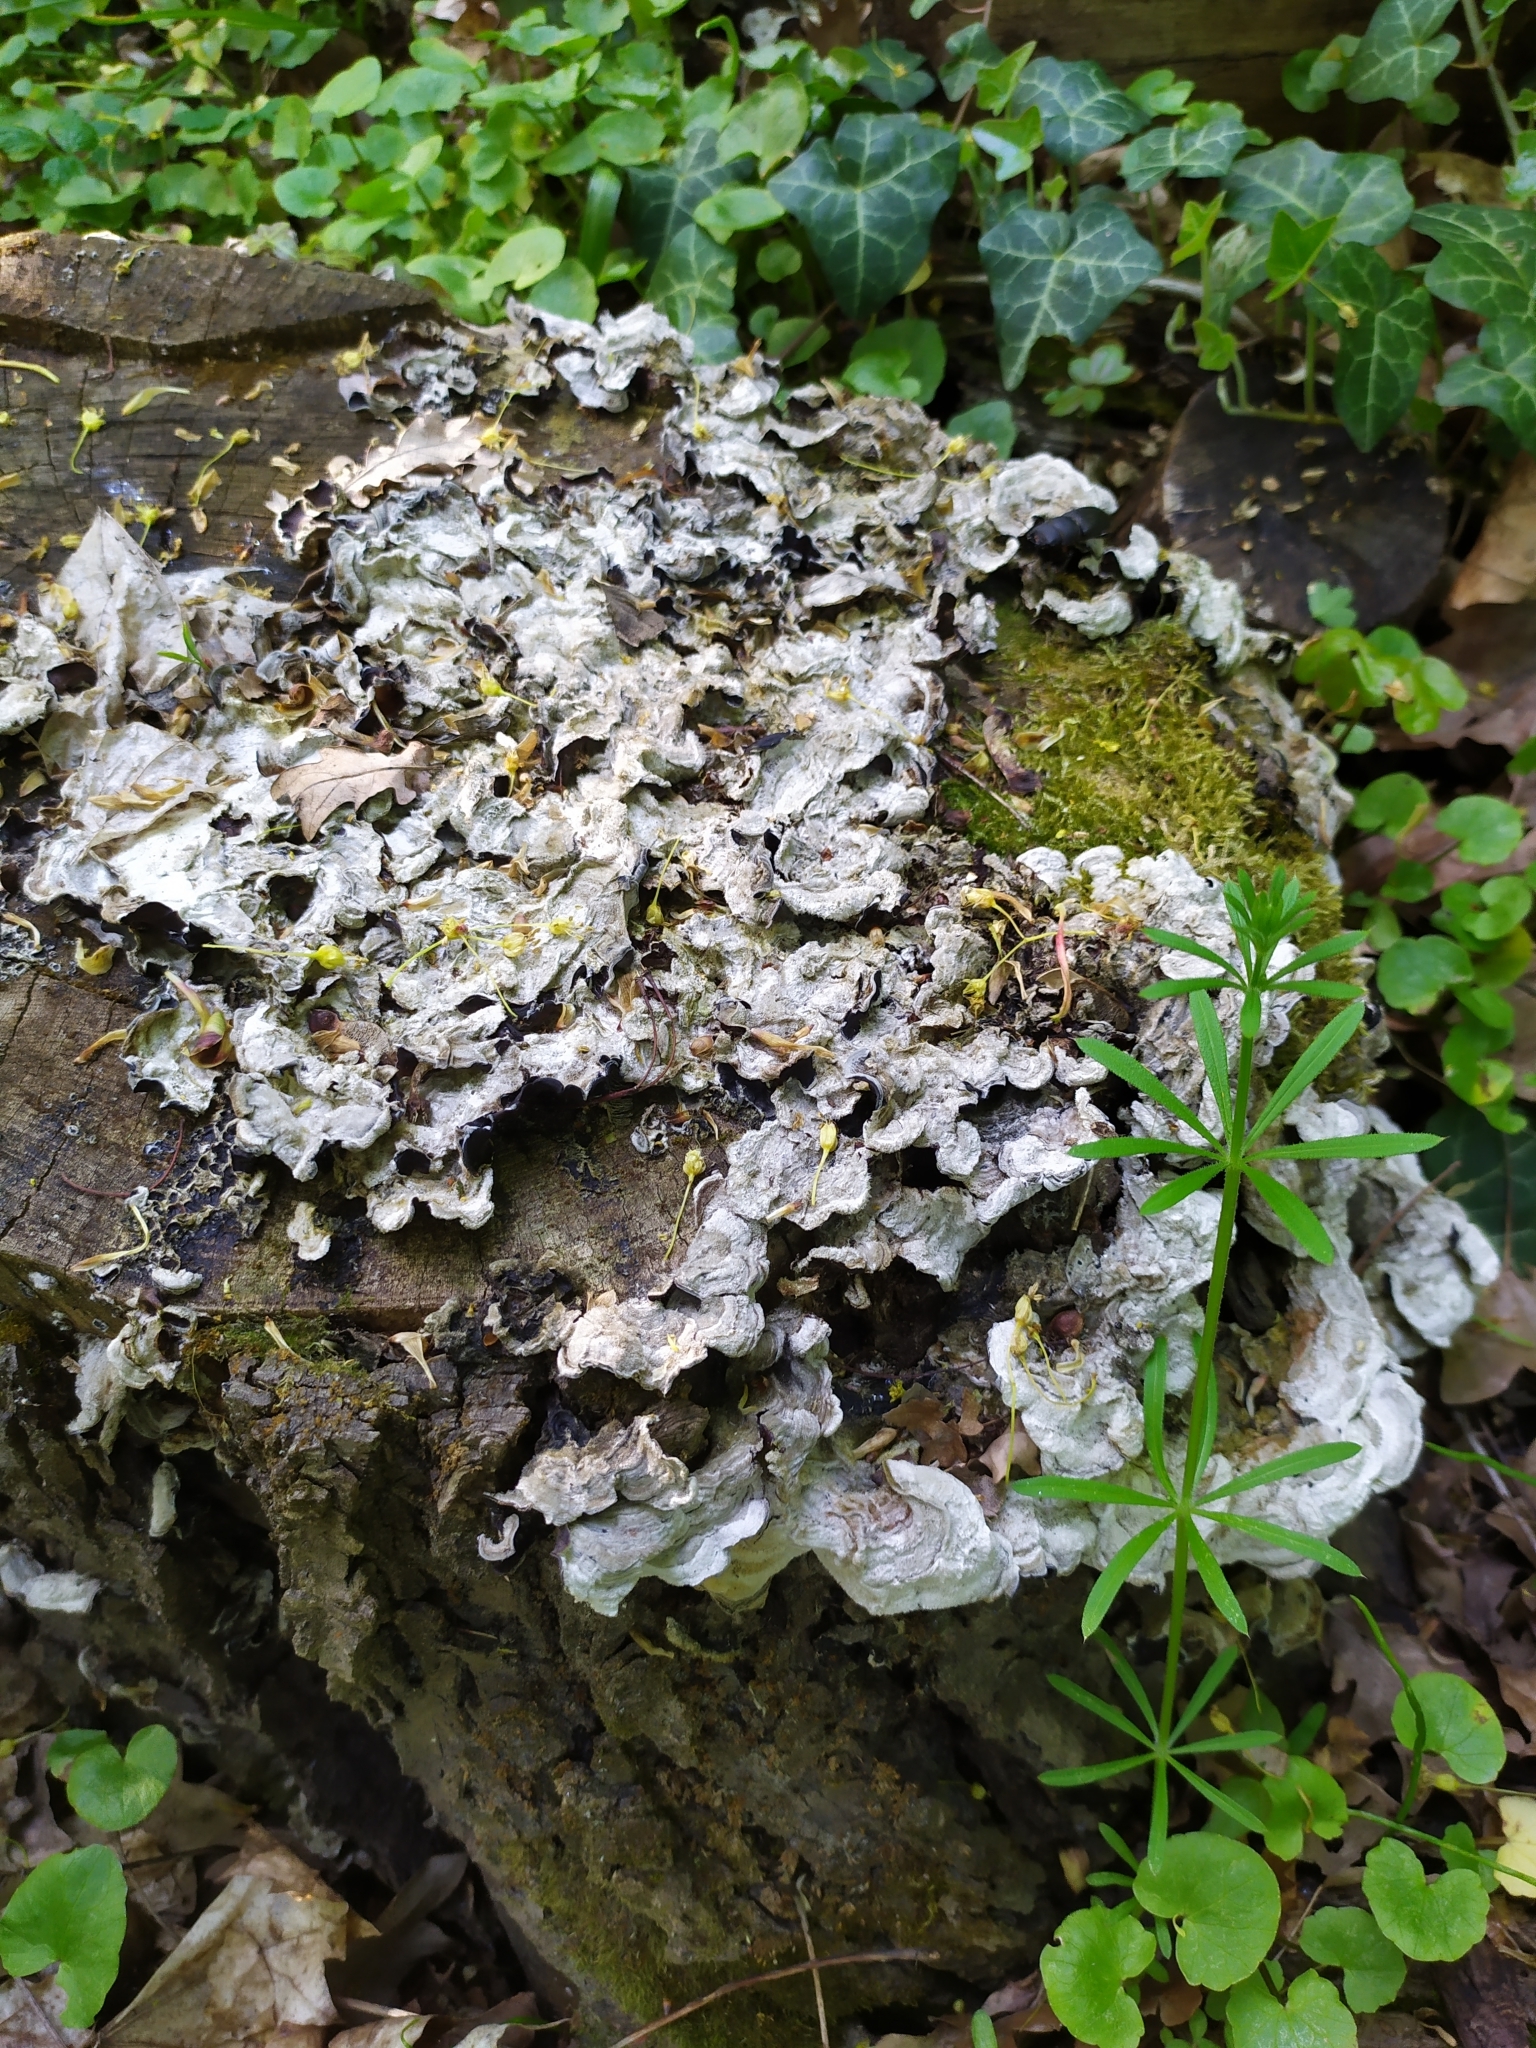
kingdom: Fungi
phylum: Basidiomycota
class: Agaricomycetes
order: Auriculariales
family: Auriculariaceae
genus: Auricularia
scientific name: Auricularia mesenterica
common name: Tripe fungus
